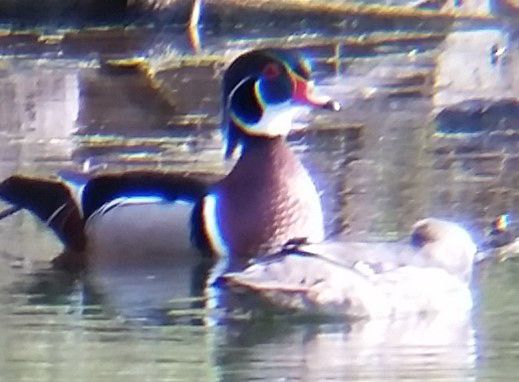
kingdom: Animalia
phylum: Chordata
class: Aves
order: Anseriformes
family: Anatidae
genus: Aix
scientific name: Aix sponsa
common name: Wood duck
